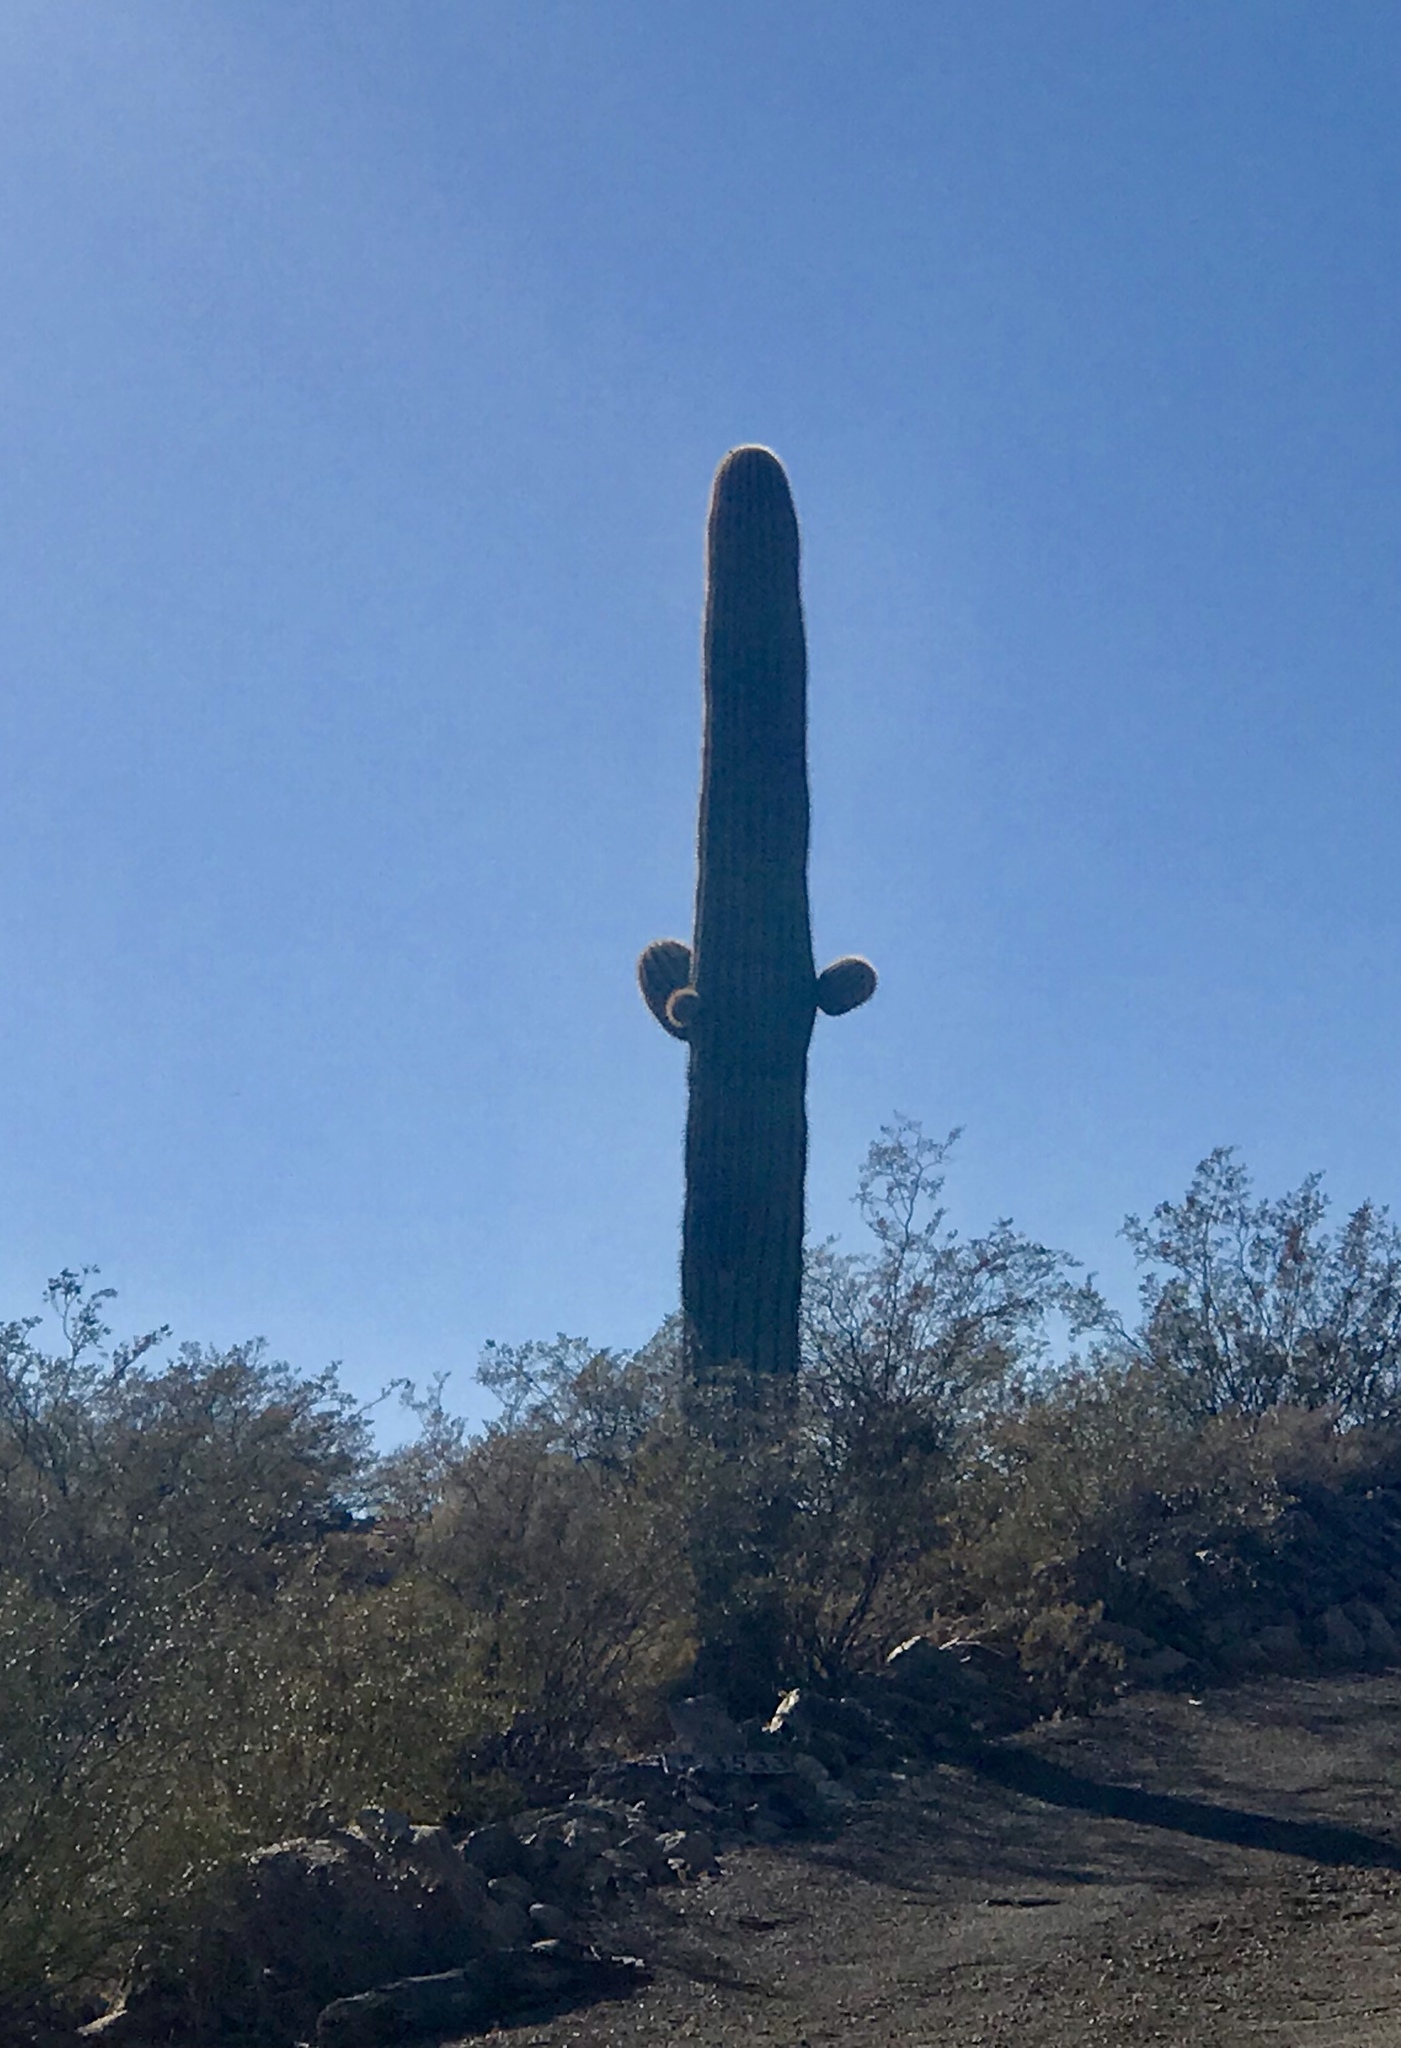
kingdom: Plantae
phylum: Tracheophyta
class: Magnoliopsida
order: Caryophyllales
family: Cactaceae
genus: Carnegiea
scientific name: Carnegiea gigantea
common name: Saguaro
